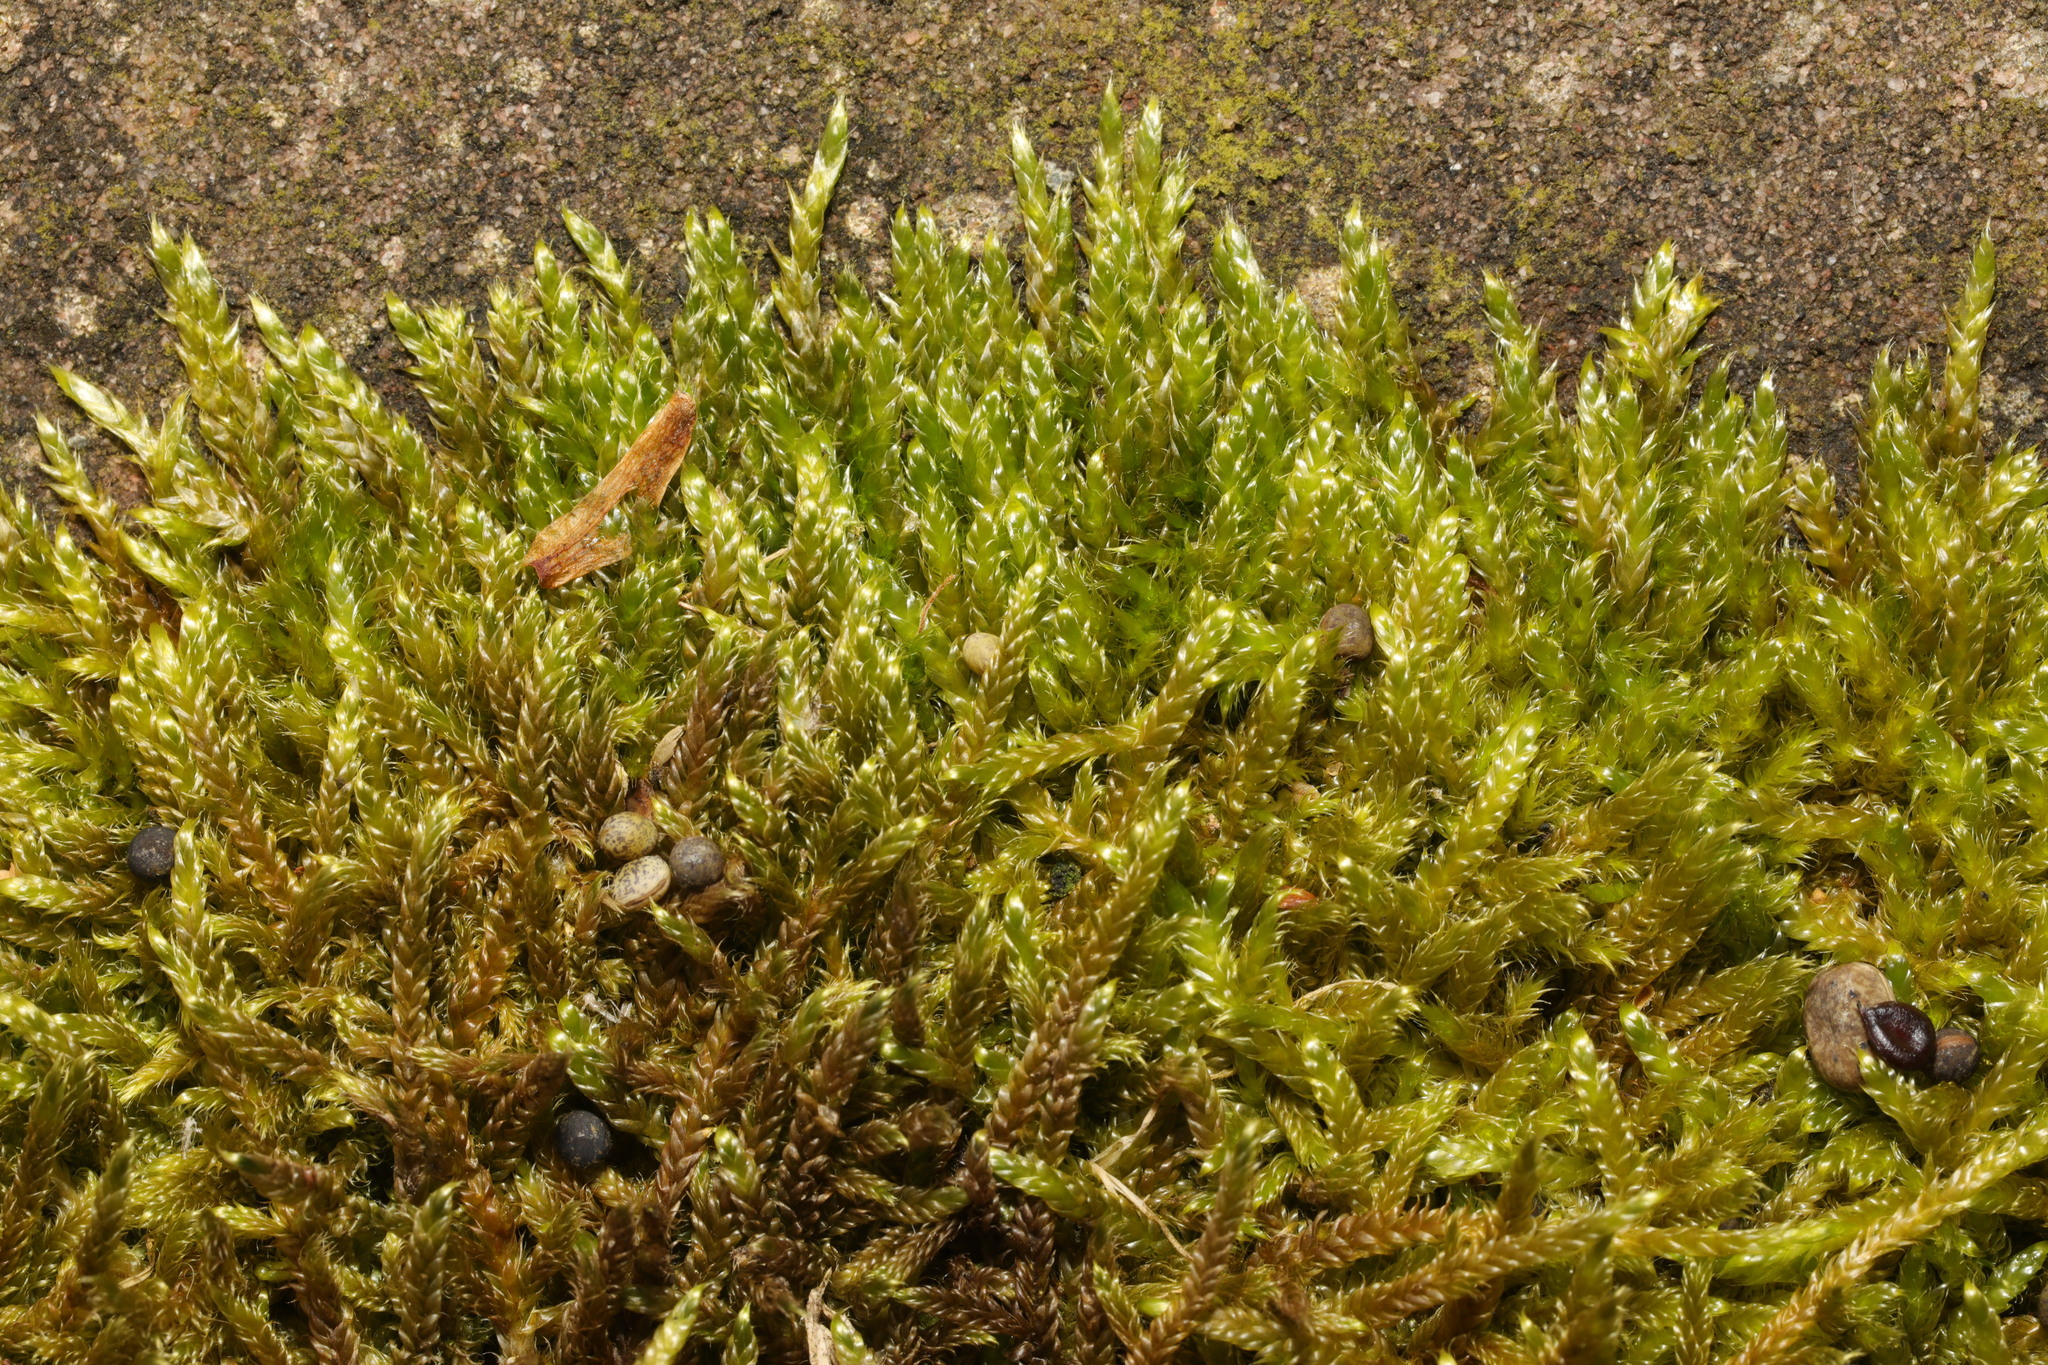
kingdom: Plantae
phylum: Bryophyta
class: Bryopsida
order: Hypnales
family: Hypnaceae
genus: Hypnum
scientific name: Hypnum cupressiforme
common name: Cypress-leaved plait-moss
